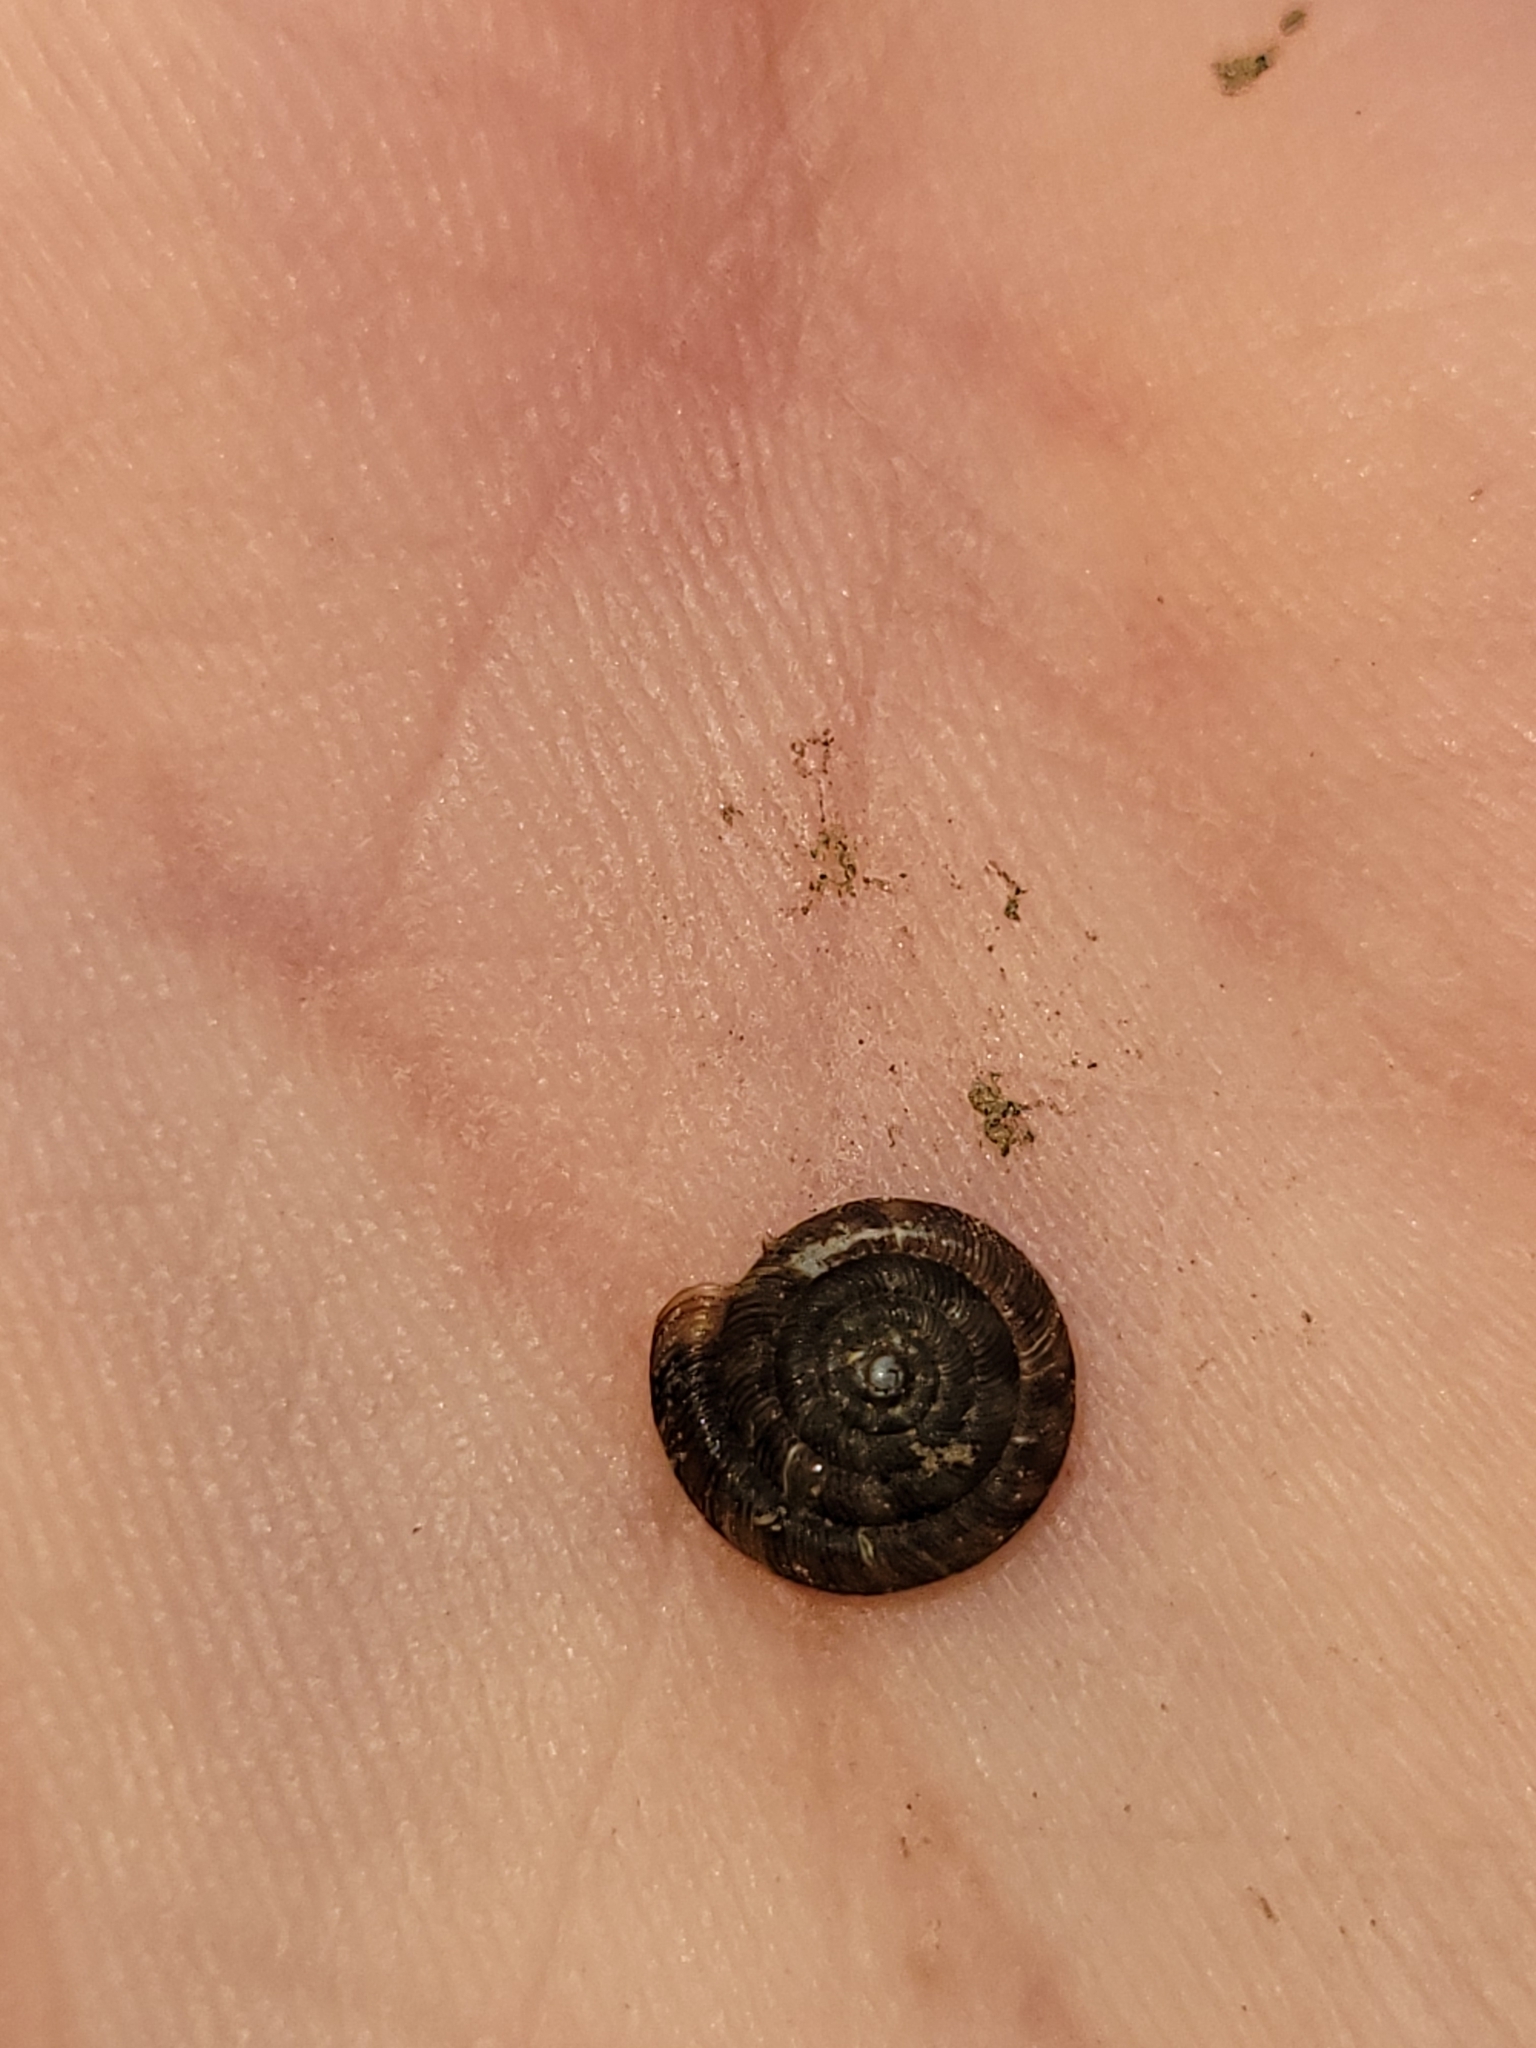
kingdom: Animalia
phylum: Mollusca
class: Gastropoda
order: Stylommatophora
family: Discidae
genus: Discus
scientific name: Discus rotundatus
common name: Rounded snail
